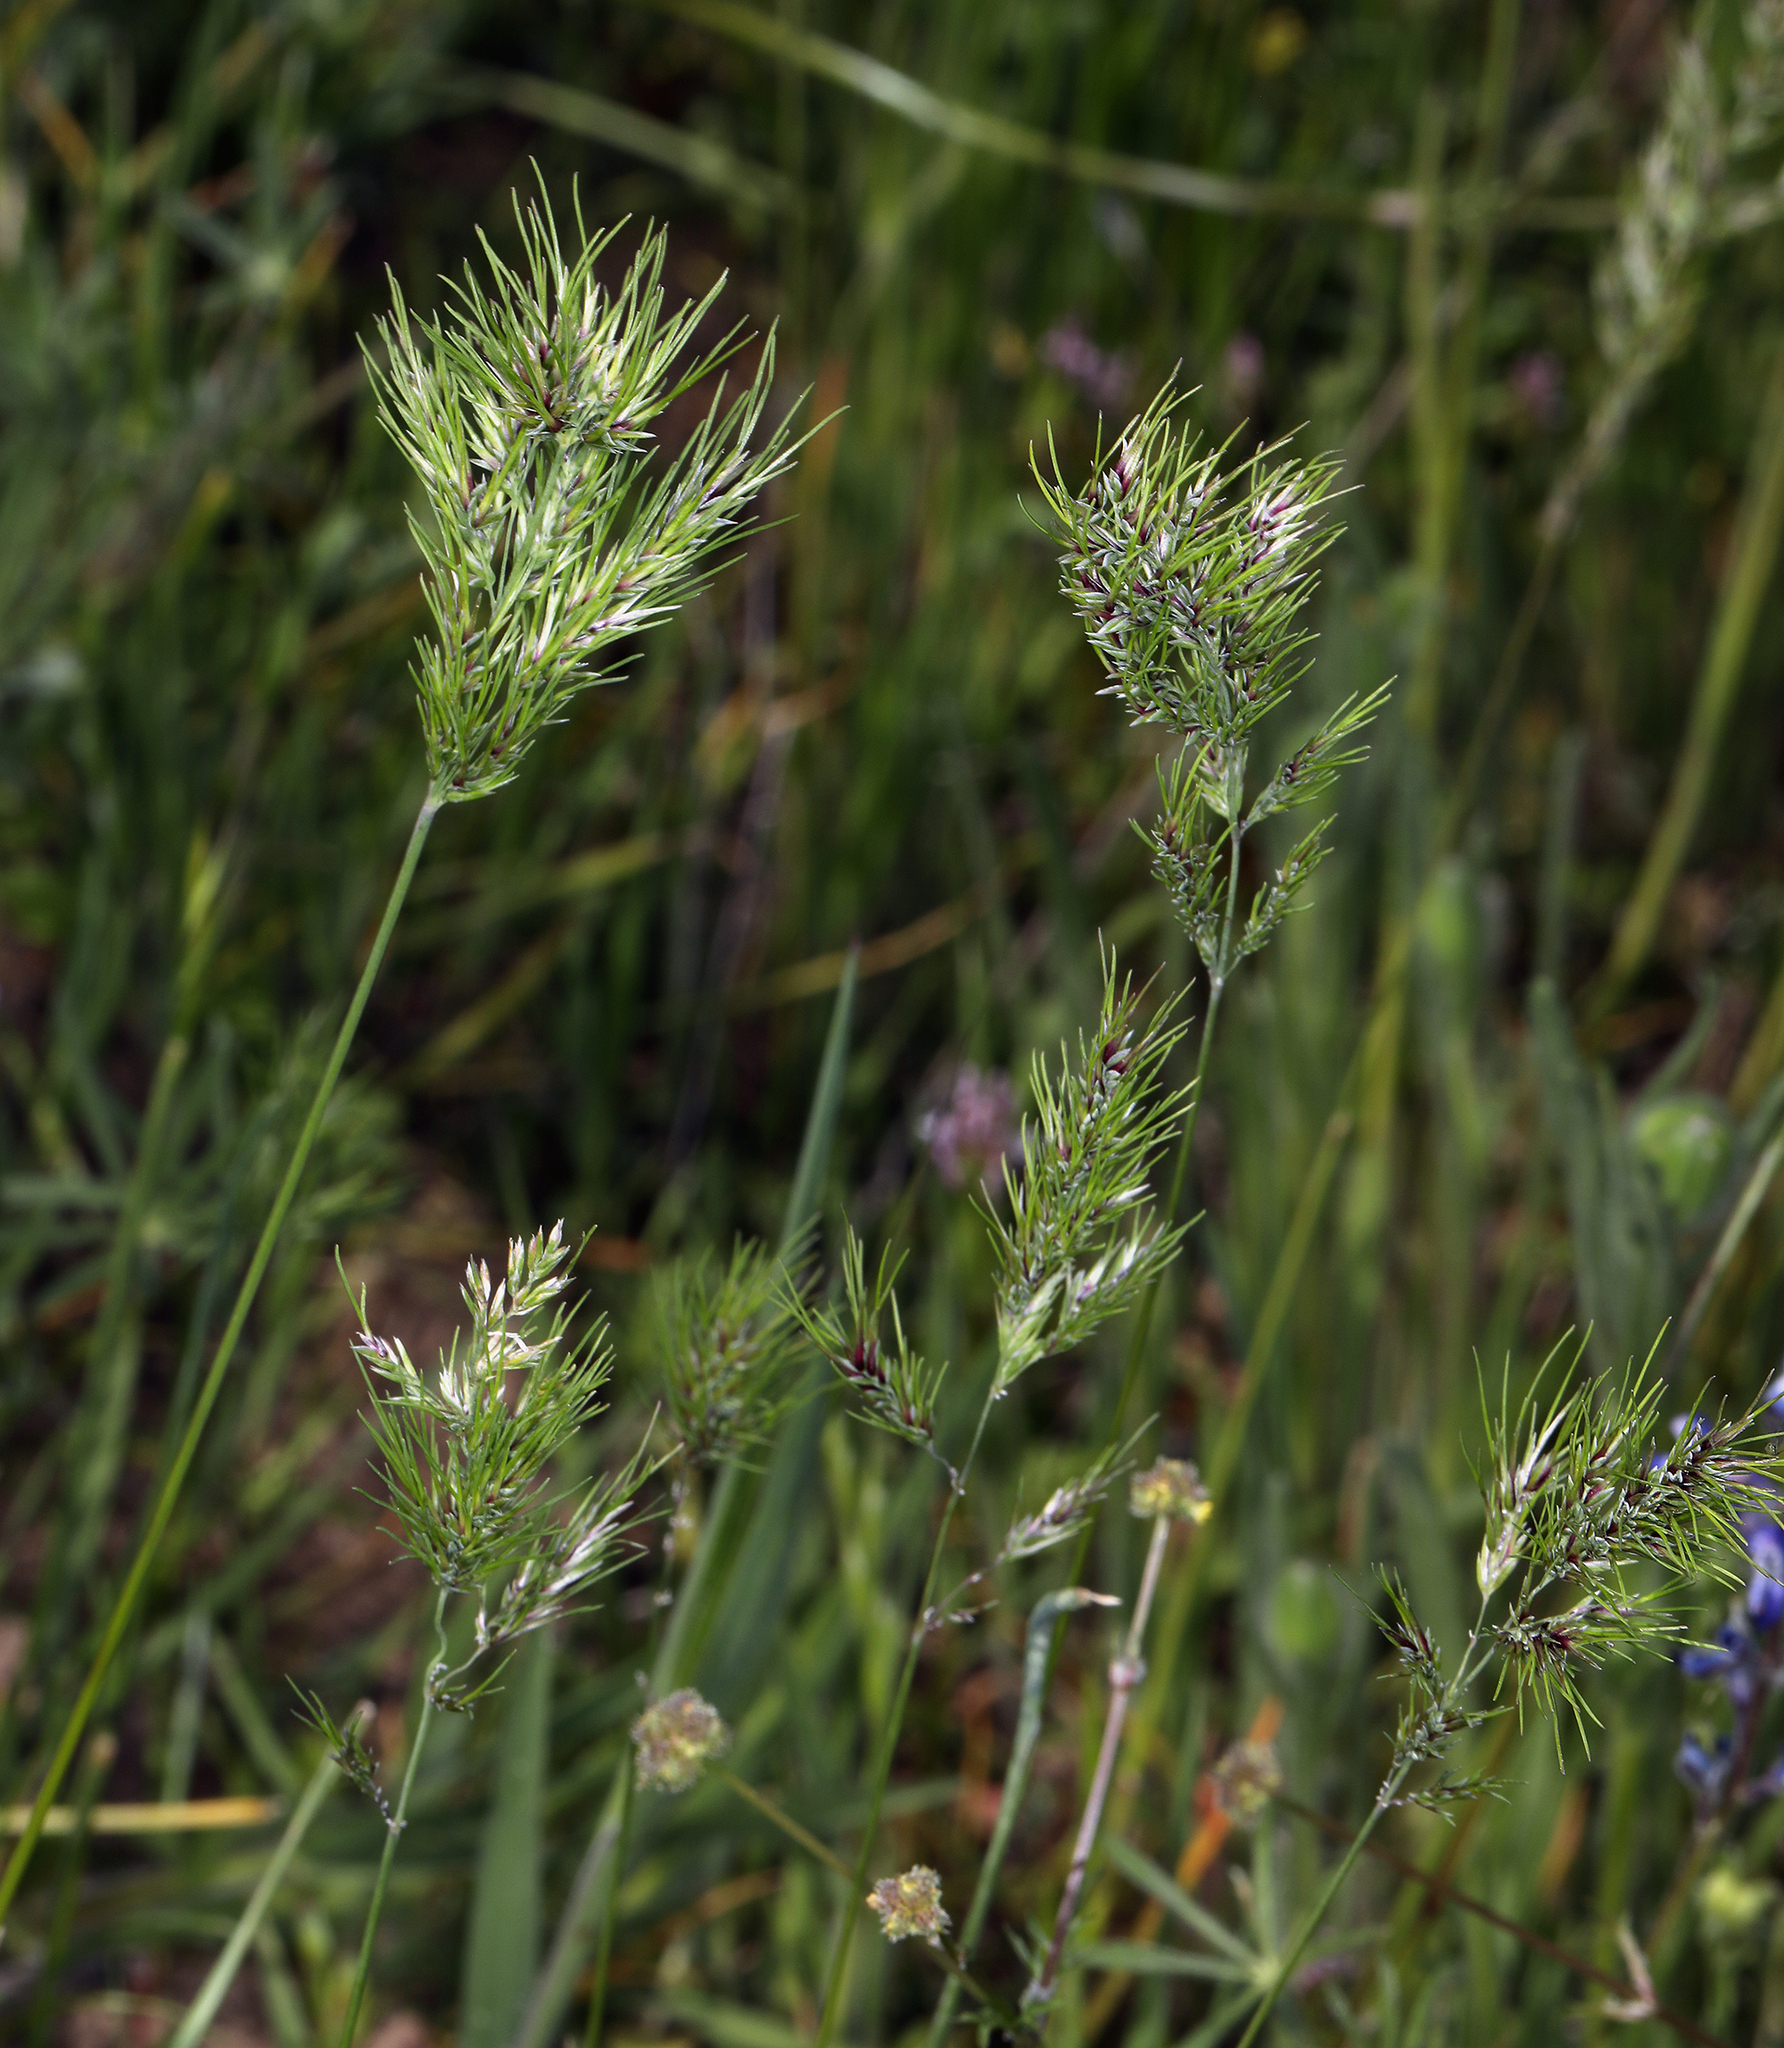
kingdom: Plantae
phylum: Tracheophyta
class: Liliopsida
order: Poales
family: Poaceae
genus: Poa
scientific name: Poa bulbosa
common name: Bulbous bluegrass
